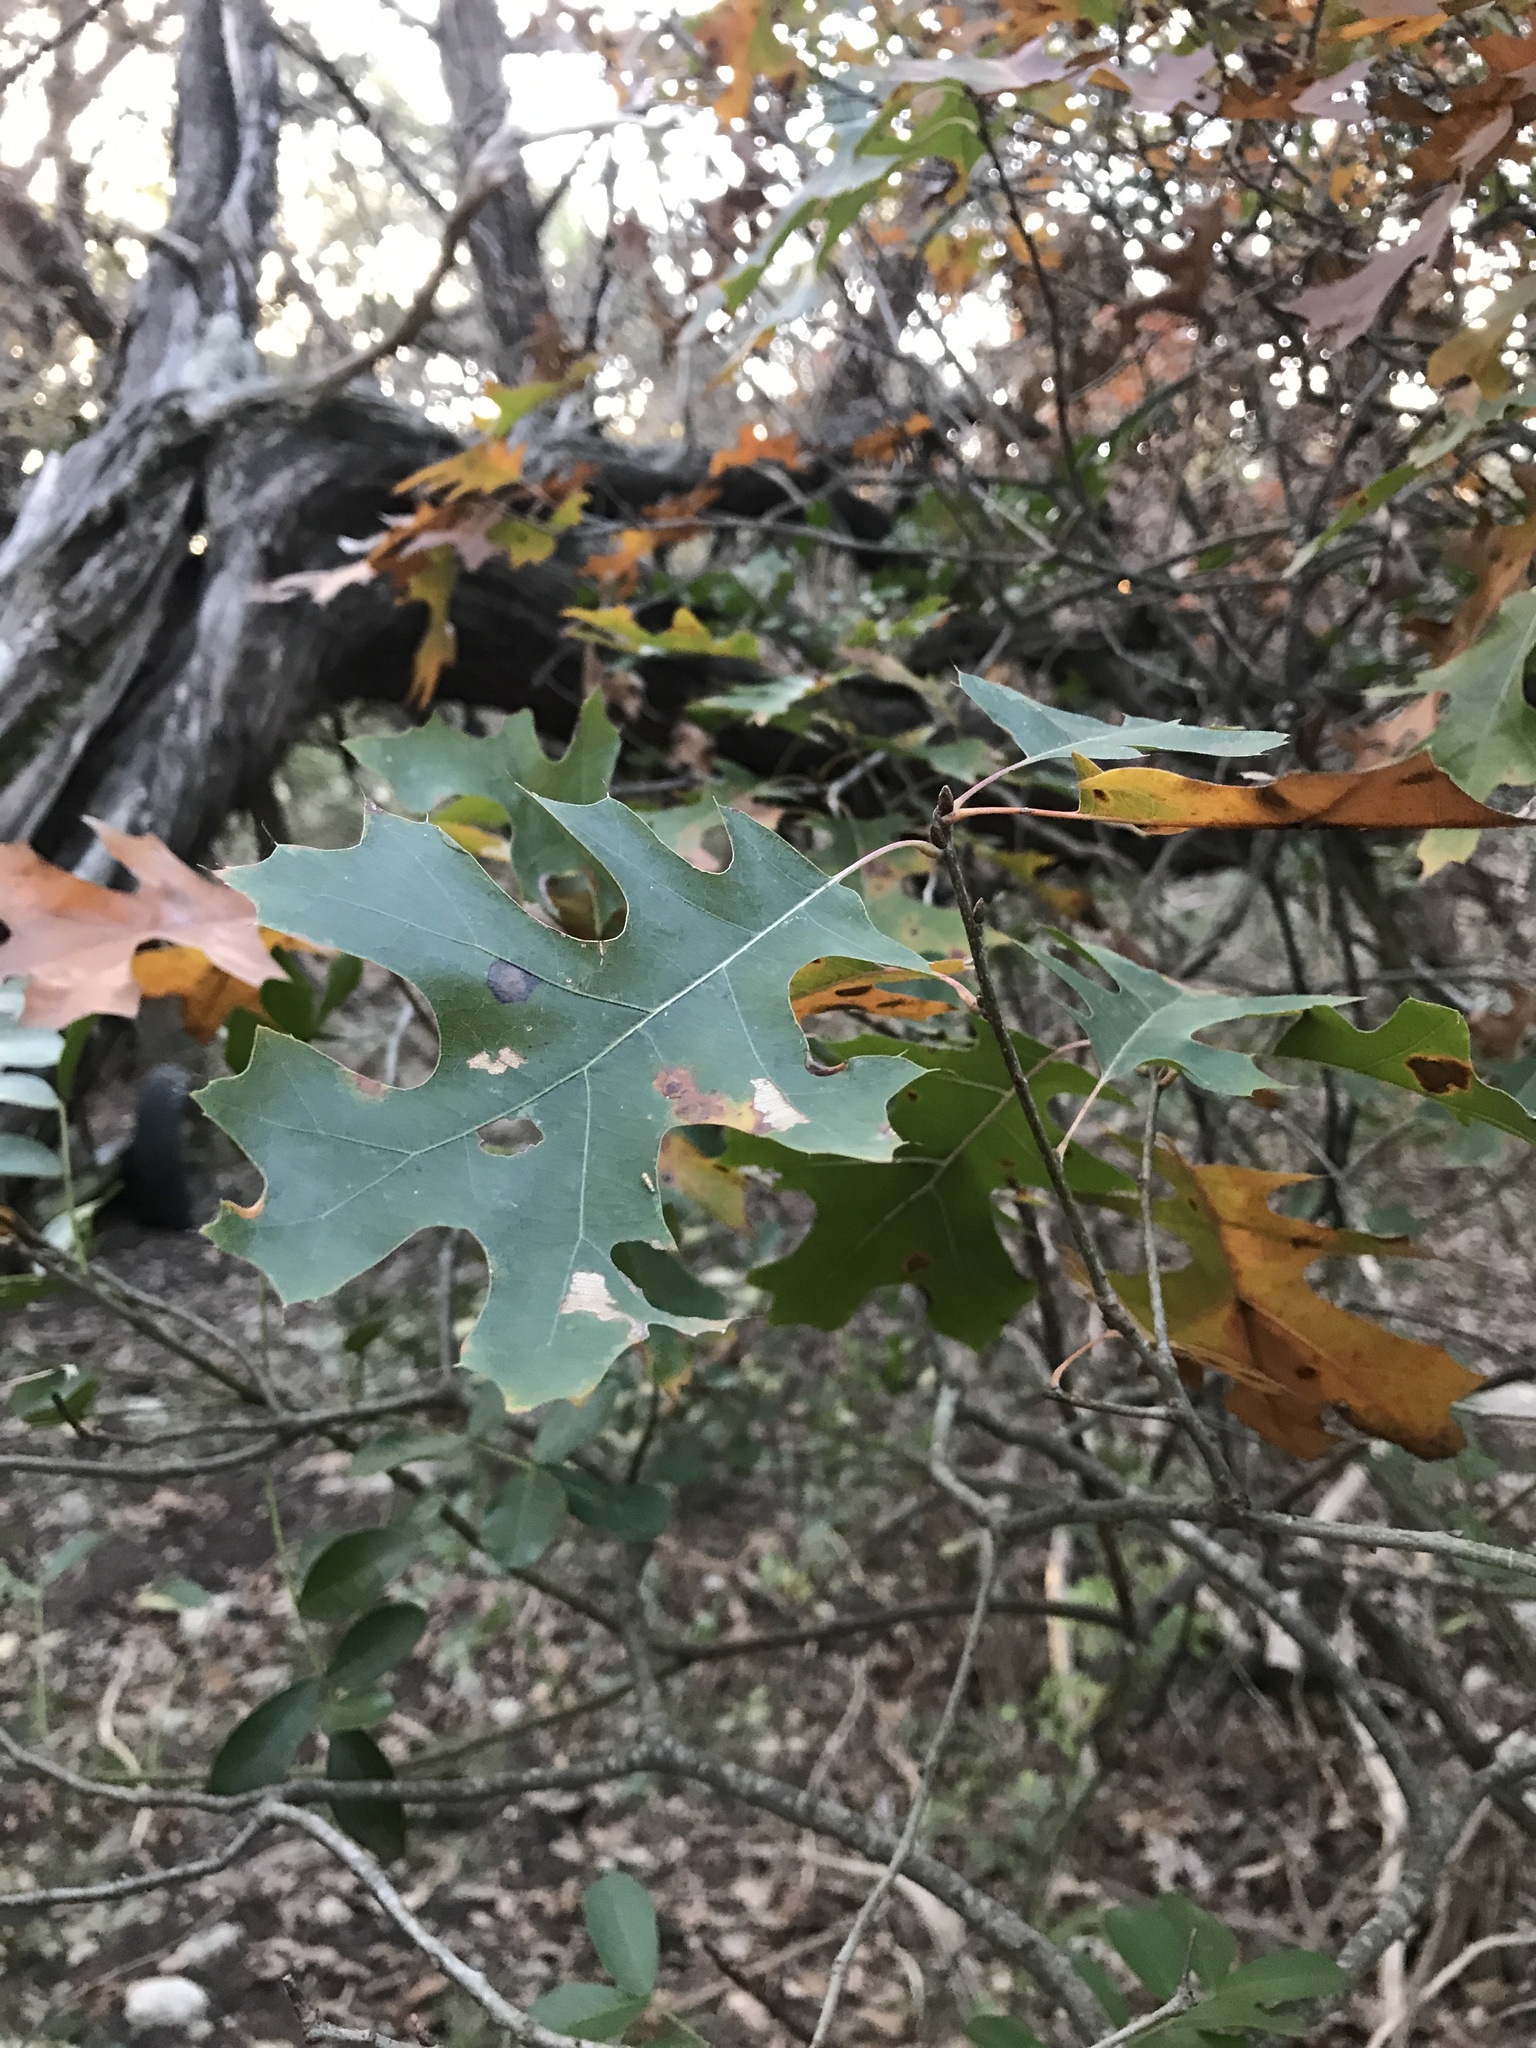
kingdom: Plantae
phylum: Tracheophyta
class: Magnoliopsida
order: Fagales
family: Fagaceae
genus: Quercus
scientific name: Quercus buckleyi
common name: Buckley oak
